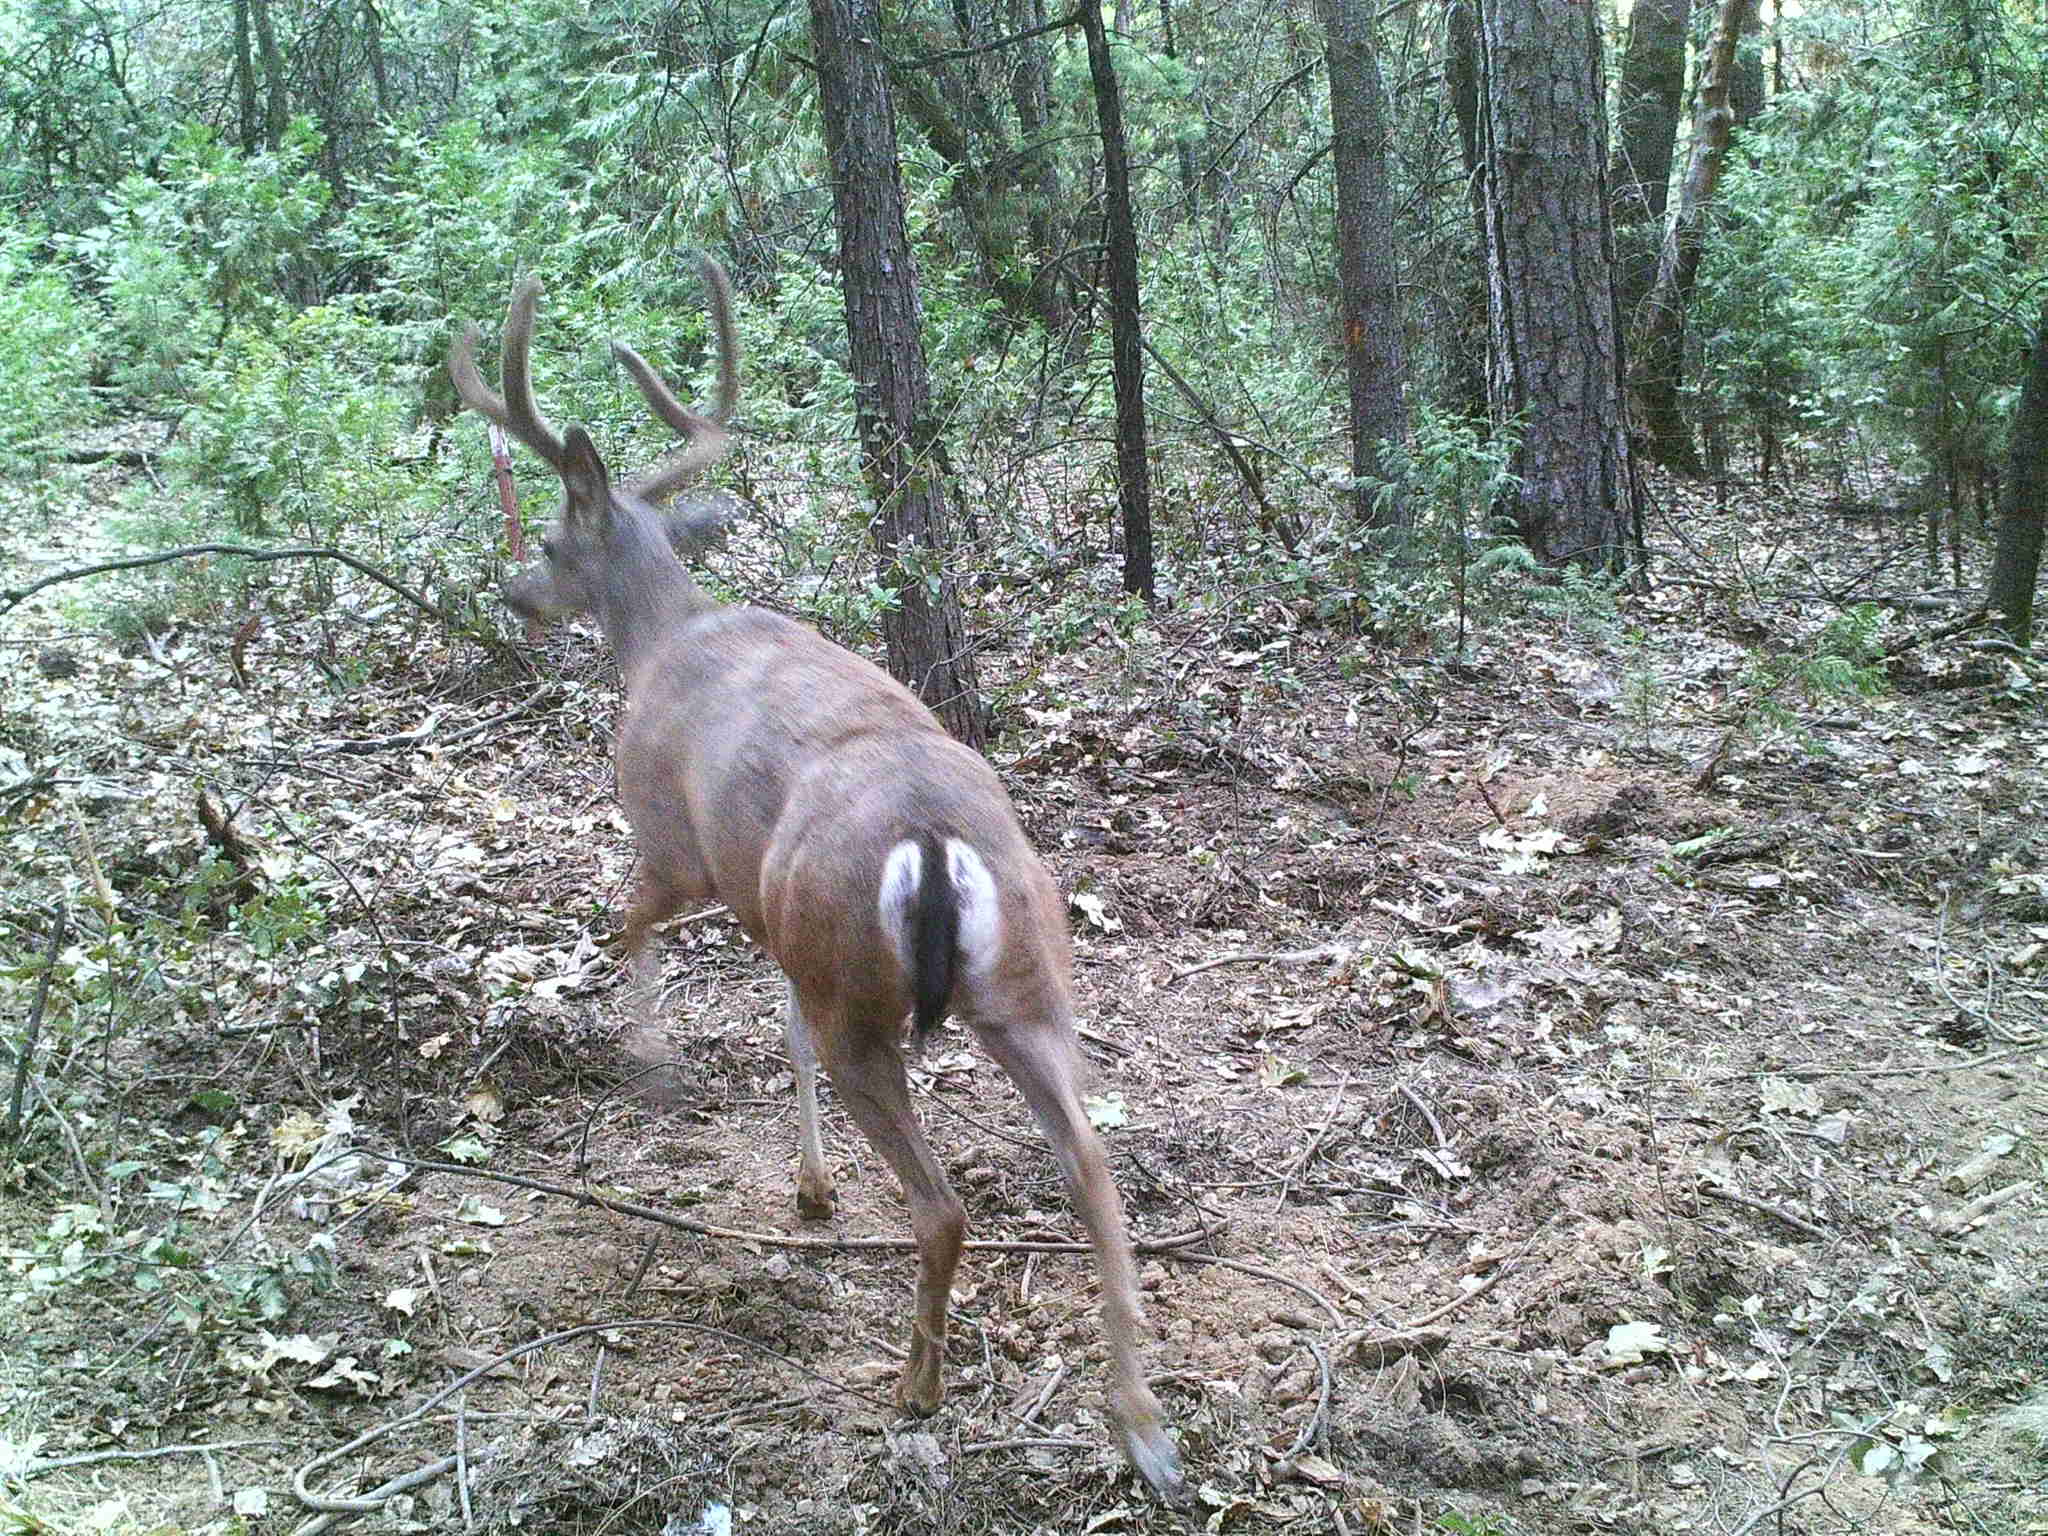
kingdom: Animalia
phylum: Chordata
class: Mammalia
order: Artiodactyla
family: Cervidae
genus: Odocoileus
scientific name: Odocoileus hemionus
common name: Mule deer
